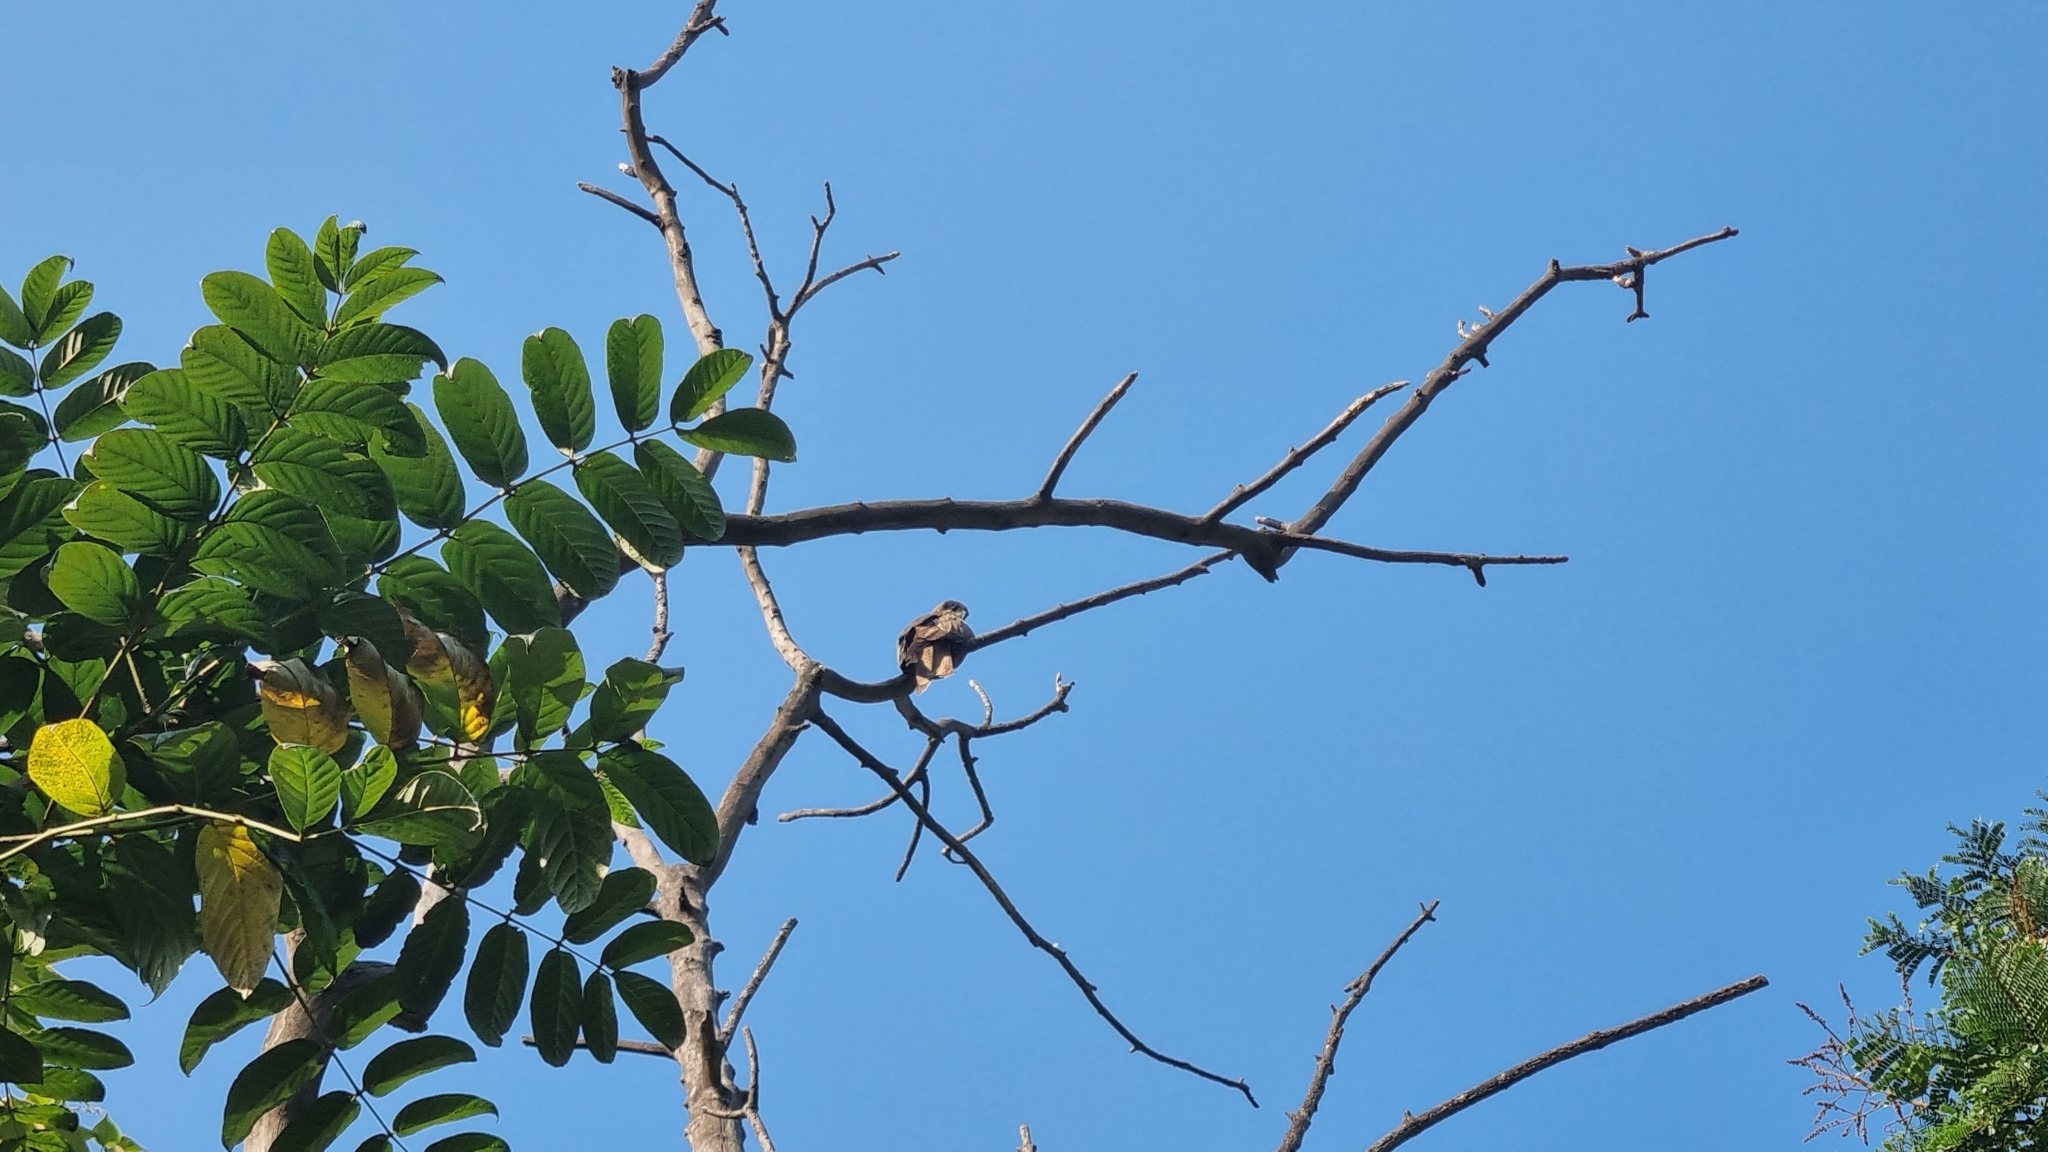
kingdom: Animalia
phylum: Chordata
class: Aves
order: Accipitriformes
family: Accipitridae
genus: Milvus
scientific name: Milvus migrans
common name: Black kite
